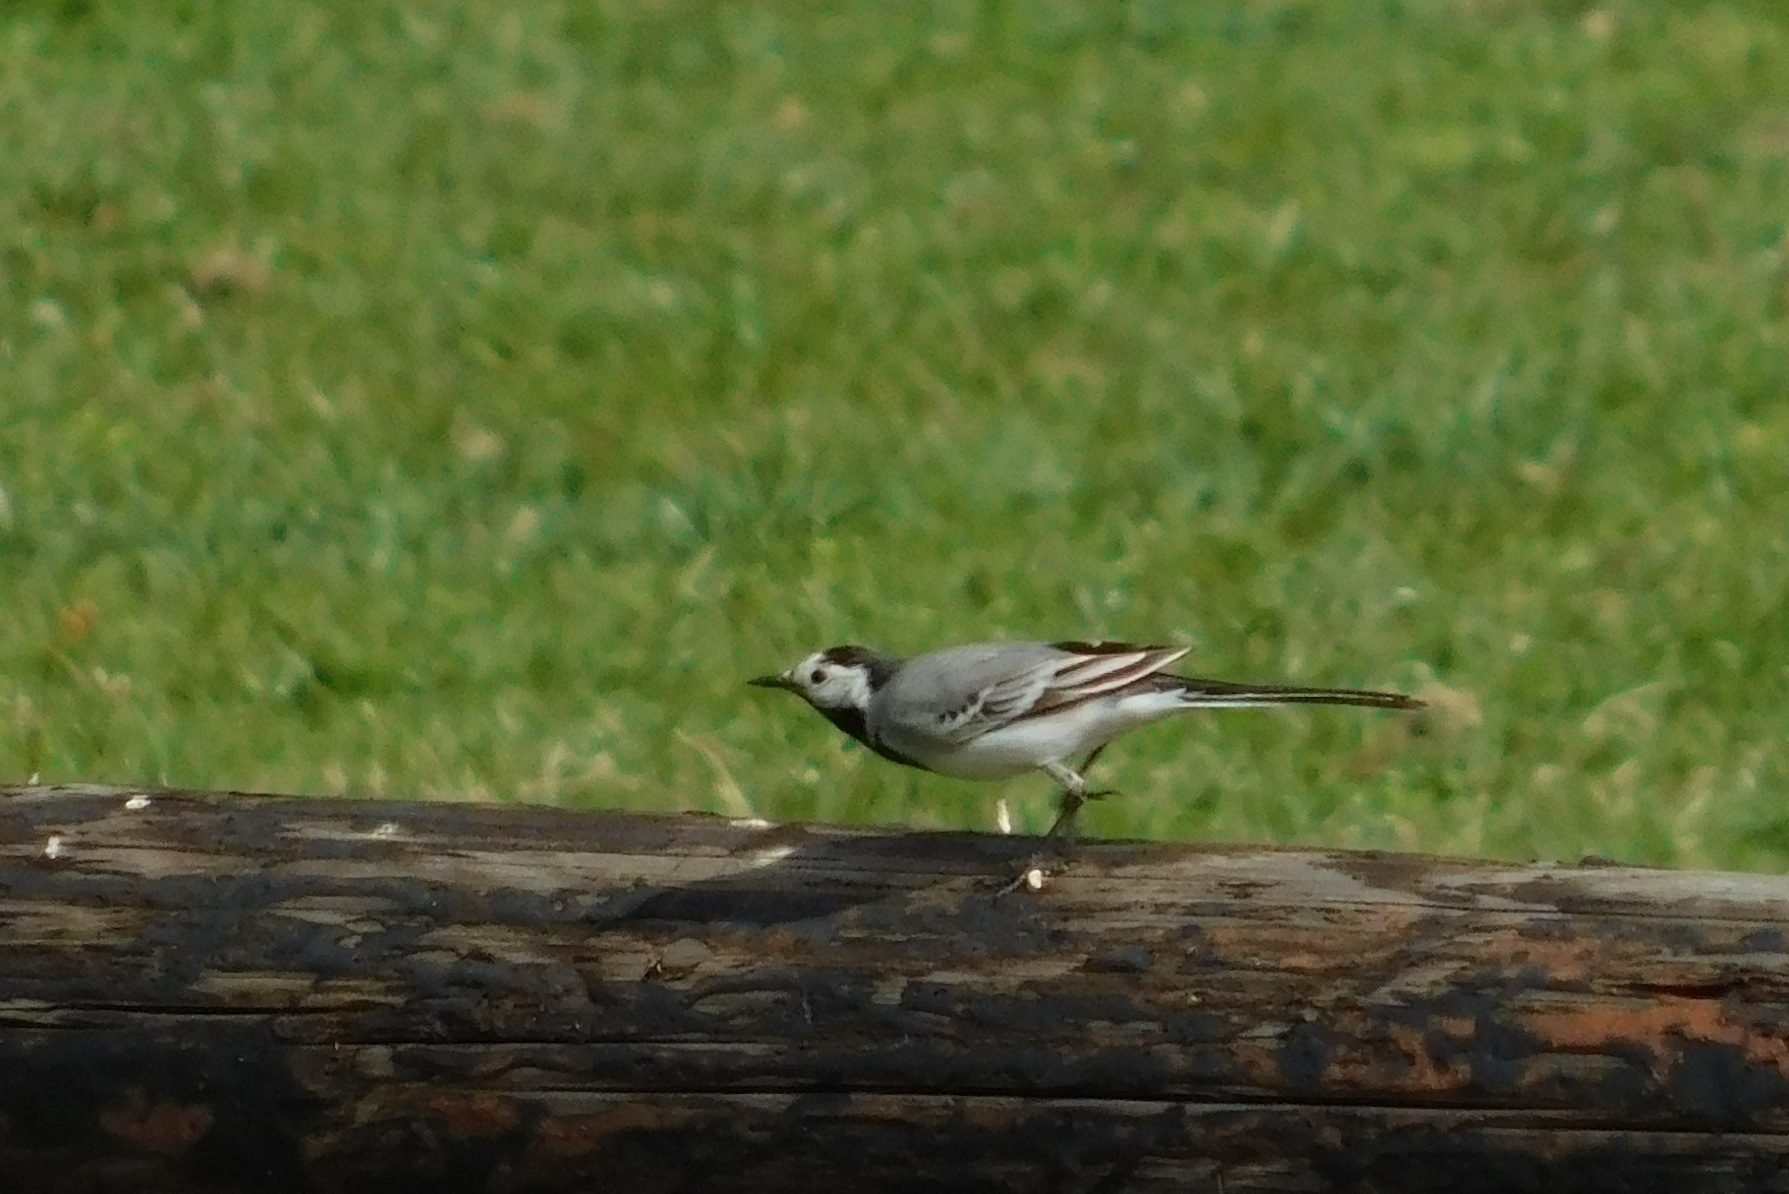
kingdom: Animalia
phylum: Chordata
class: Aves
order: Passeriformes
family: Motacillidae
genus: Motacilla
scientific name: Motacilla alba
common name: White wagtail
